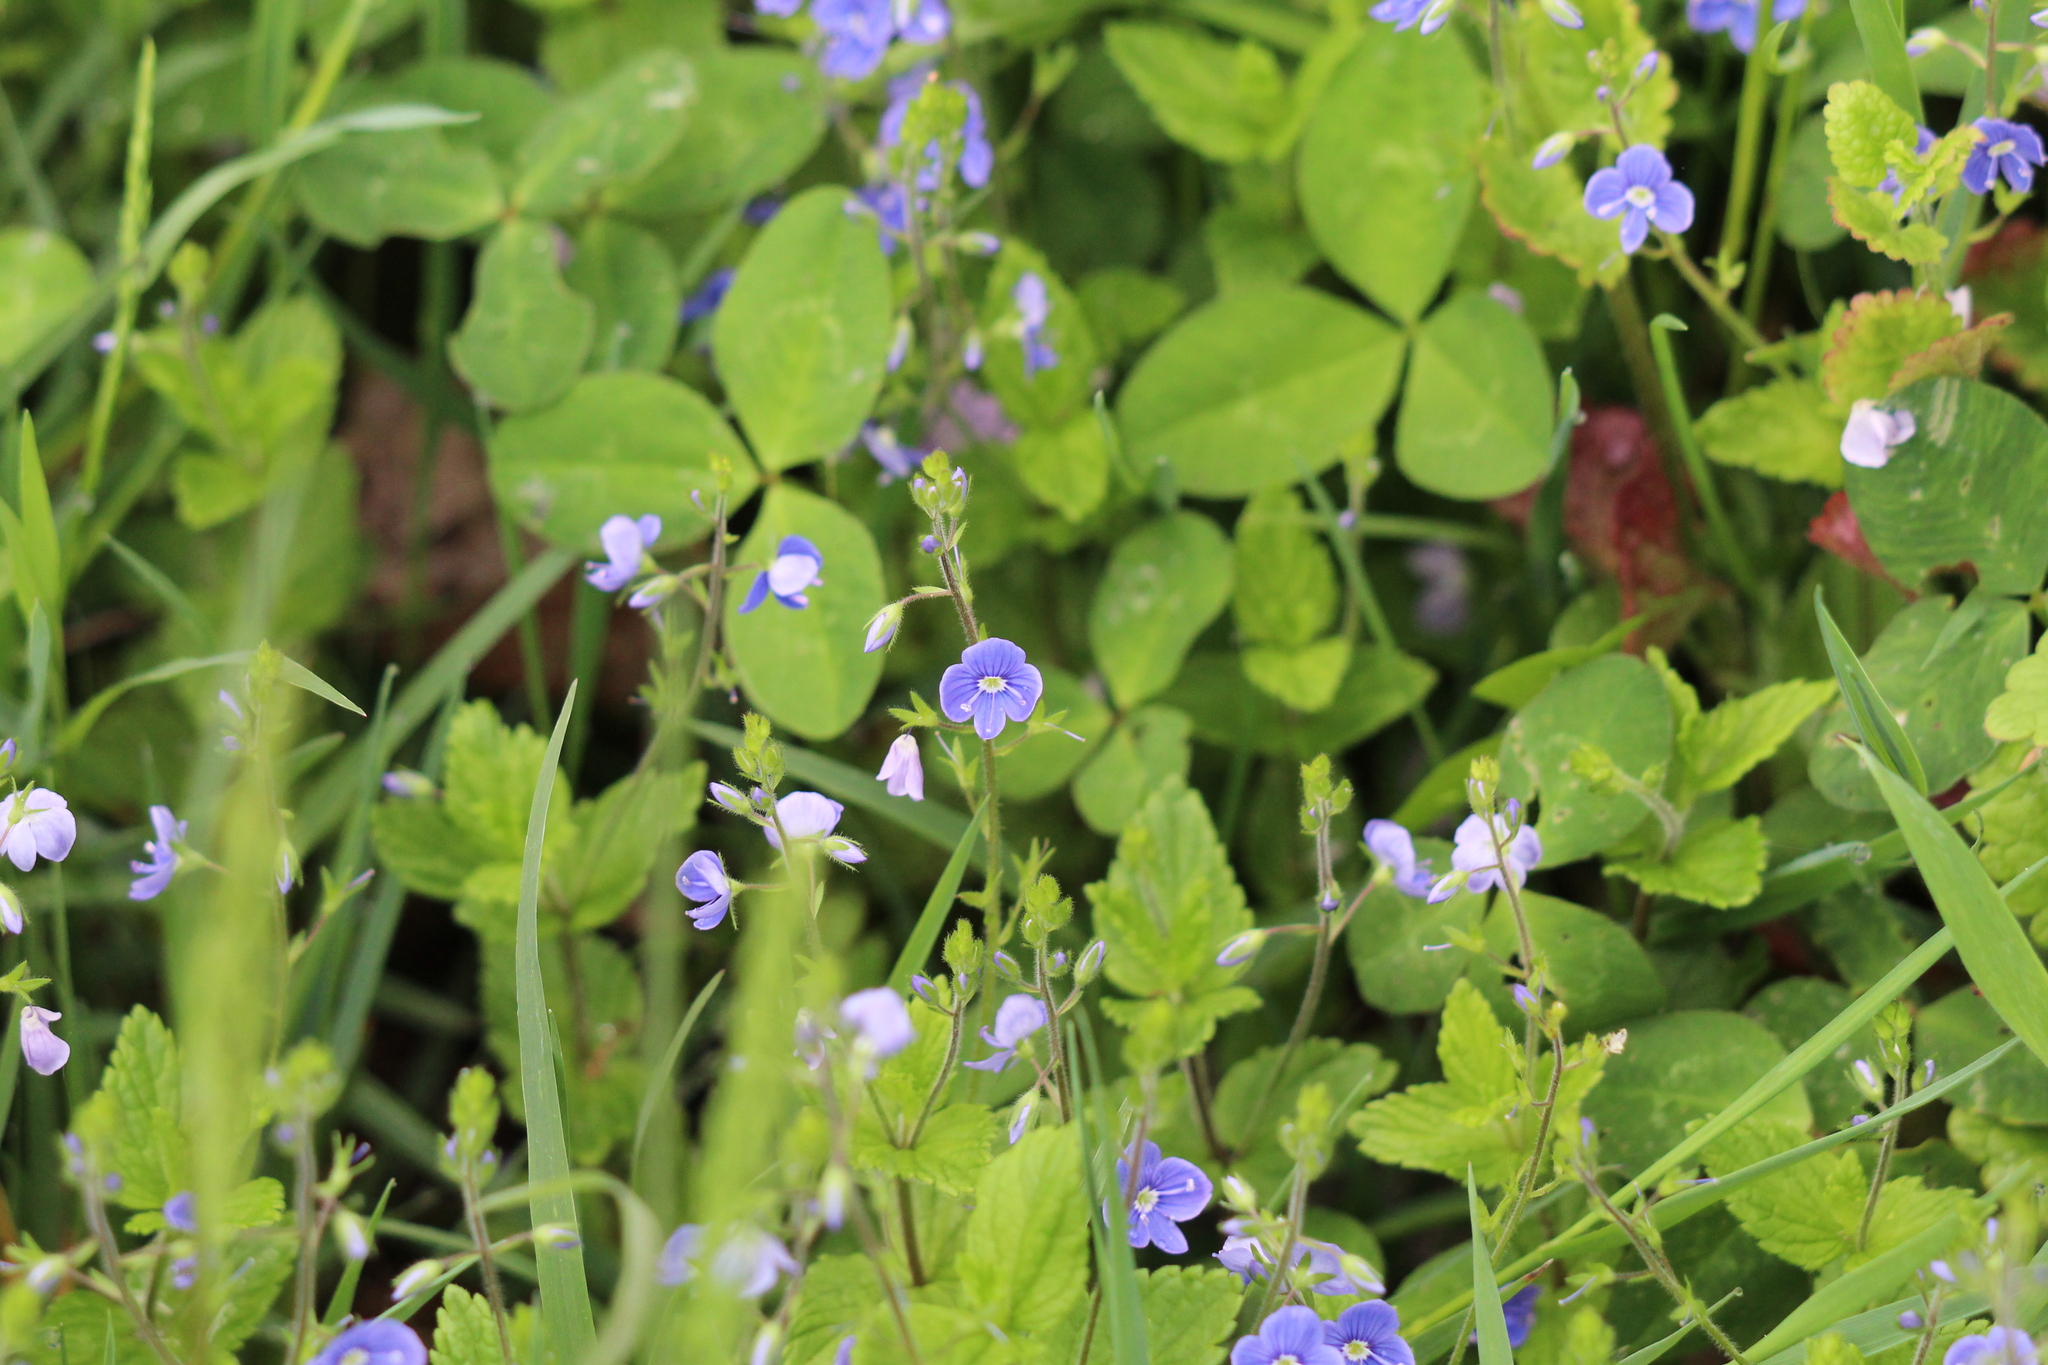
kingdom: Plantae
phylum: Tracheophyta
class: Magnoliopsida
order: Lamiales
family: Plantaginaceae
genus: Veronica
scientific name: Veronica chamaedrys
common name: Germander speedwell
